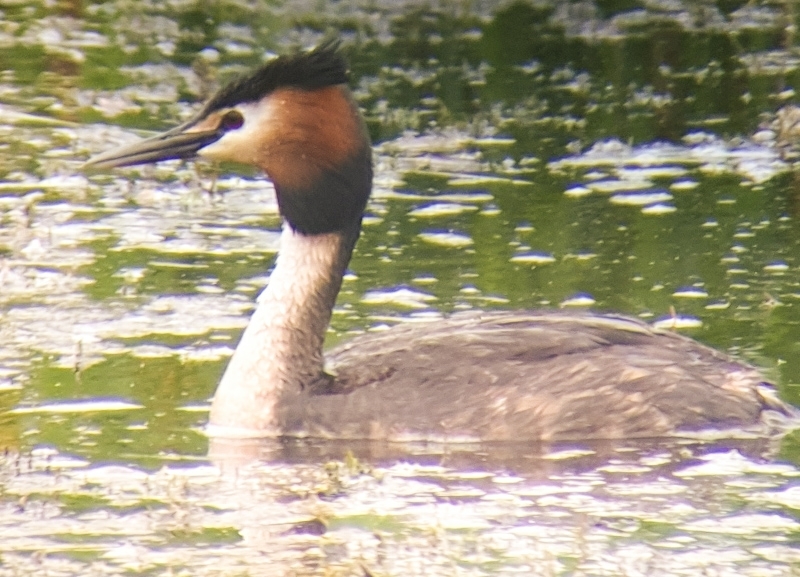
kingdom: Animalia
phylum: Chordata
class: Aves
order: Podicipediformes
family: Podicipedidae
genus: Podiceps
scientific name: Podiceps cristatus
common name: Great crested grebe
